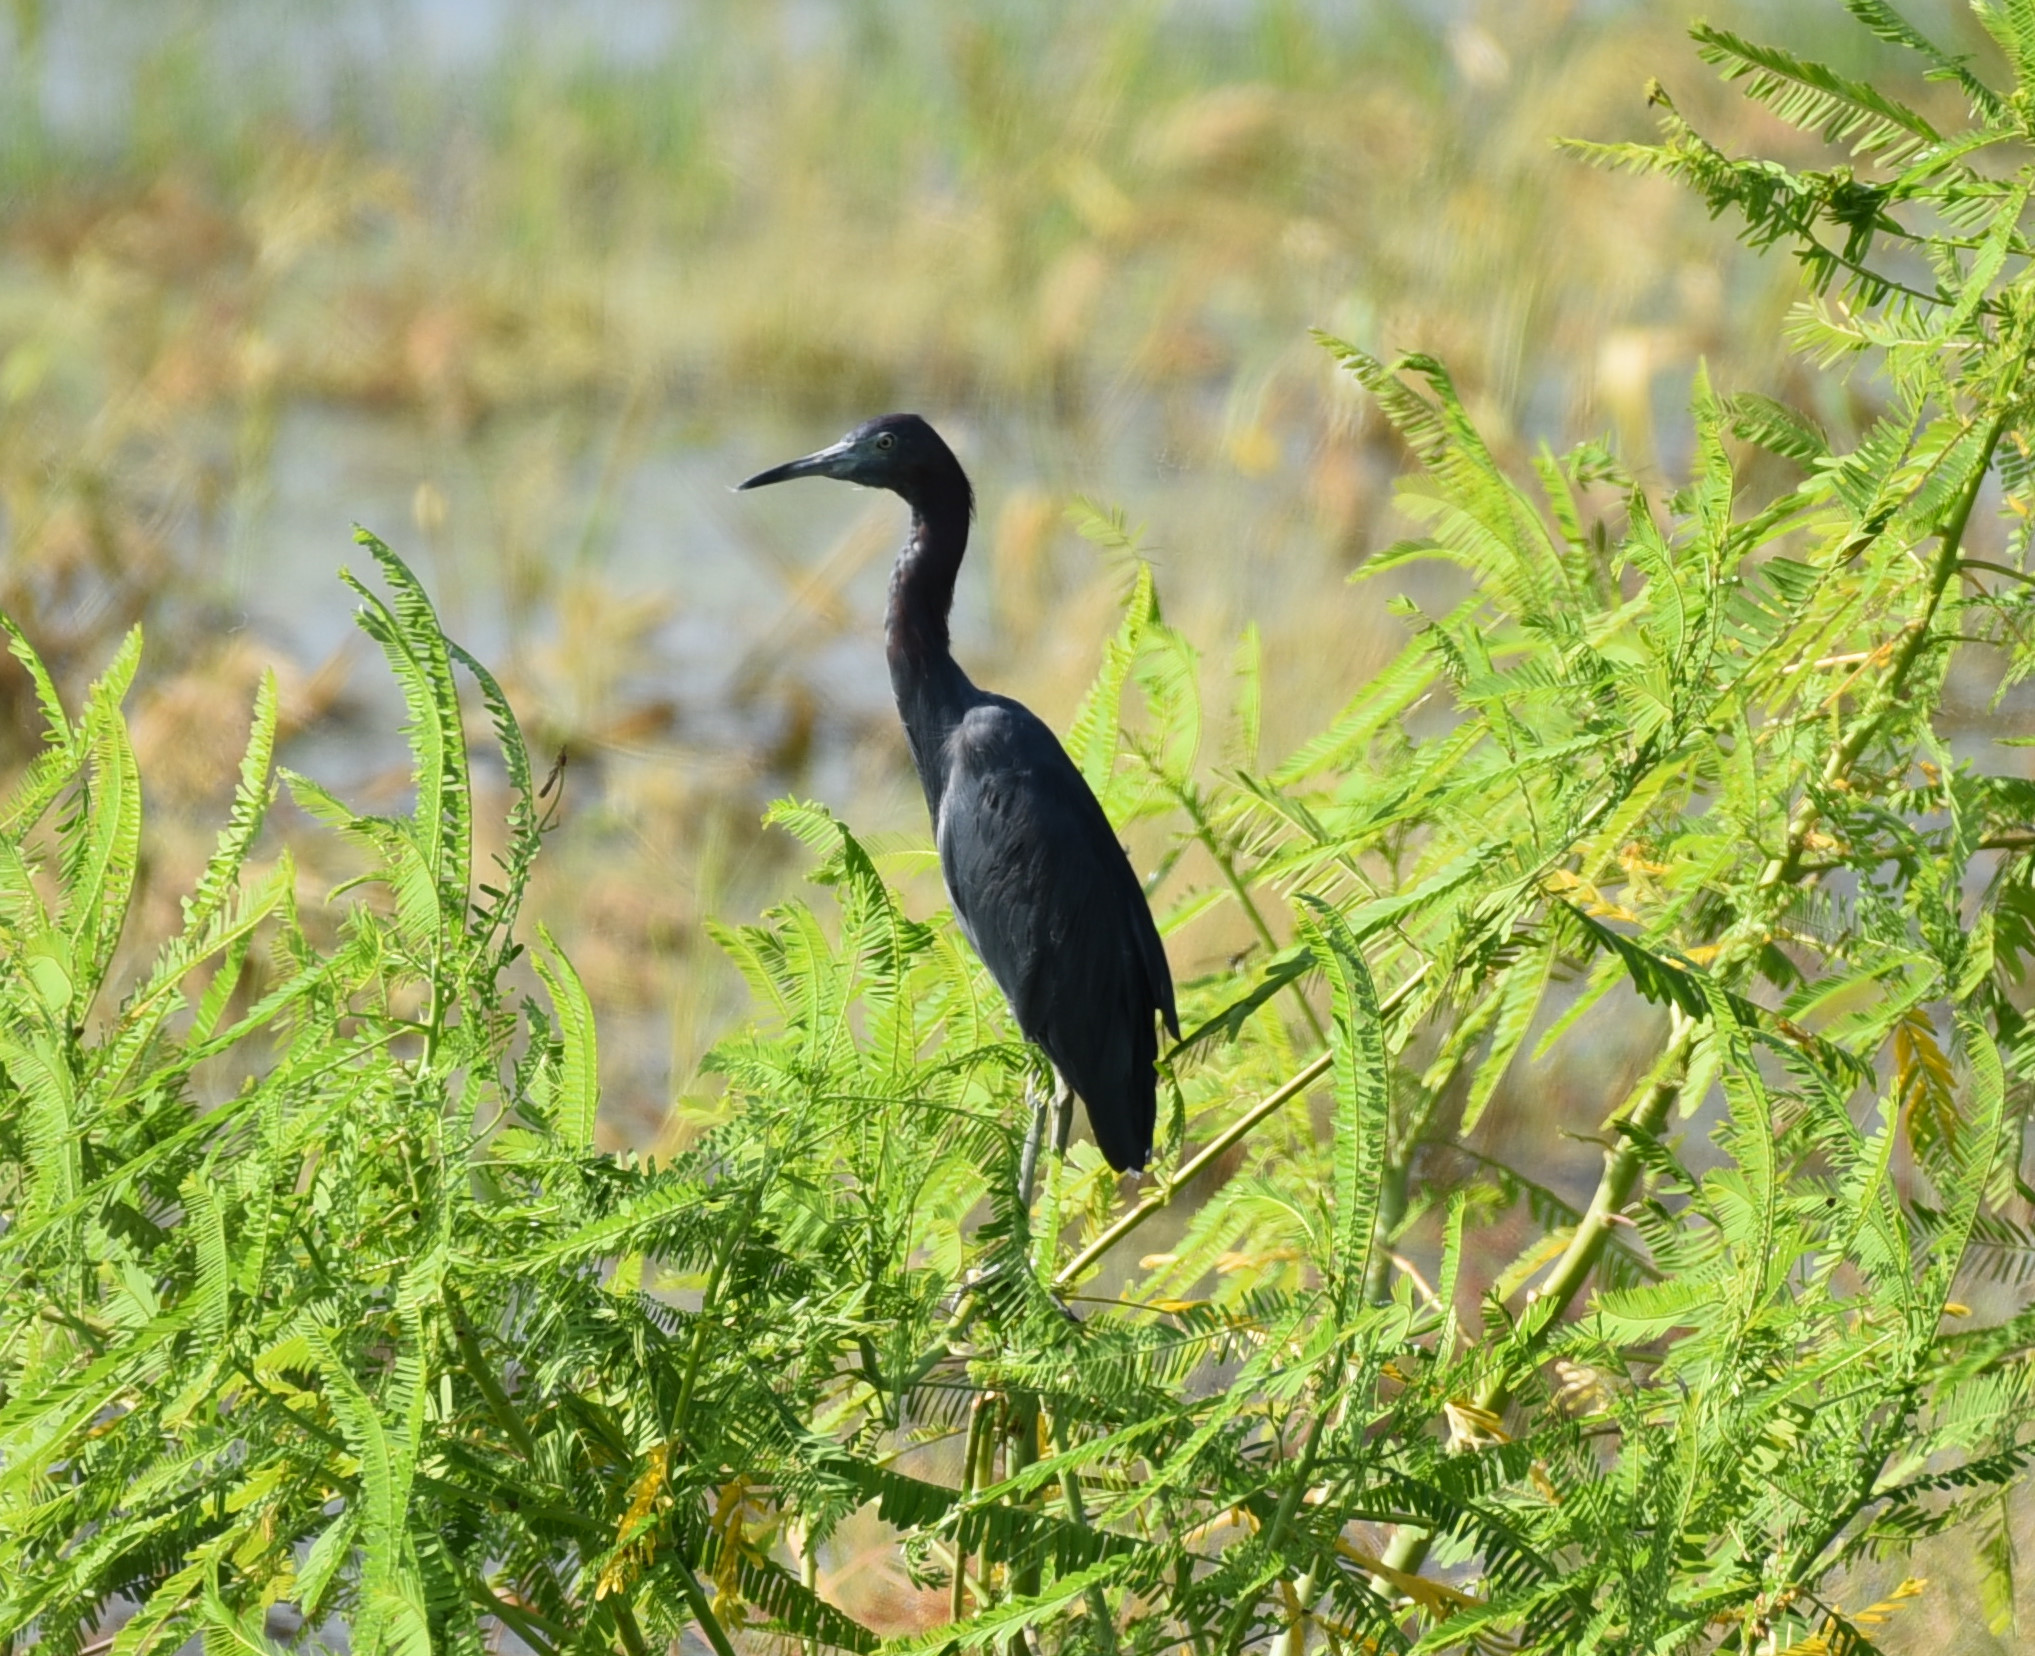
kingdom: Animalia
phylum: Chordata
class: Aves
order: Pelecaniformes
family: Ardeidae
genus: Egretta
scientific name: Egretta caerulea
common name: Little blue heron
